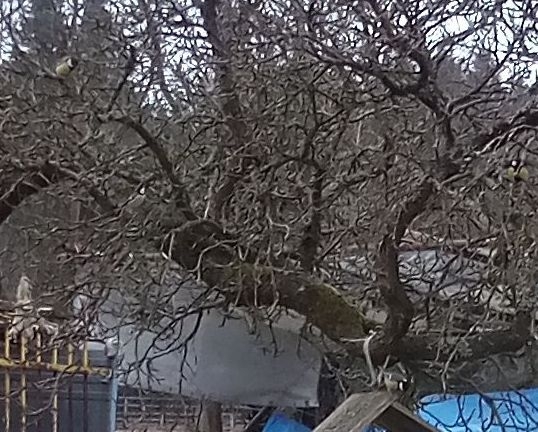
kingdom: Animalia
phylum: Chordata
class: Aves
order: Passeriformes
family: Paridae
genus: Parus
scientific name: Parus major
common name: Great tit
